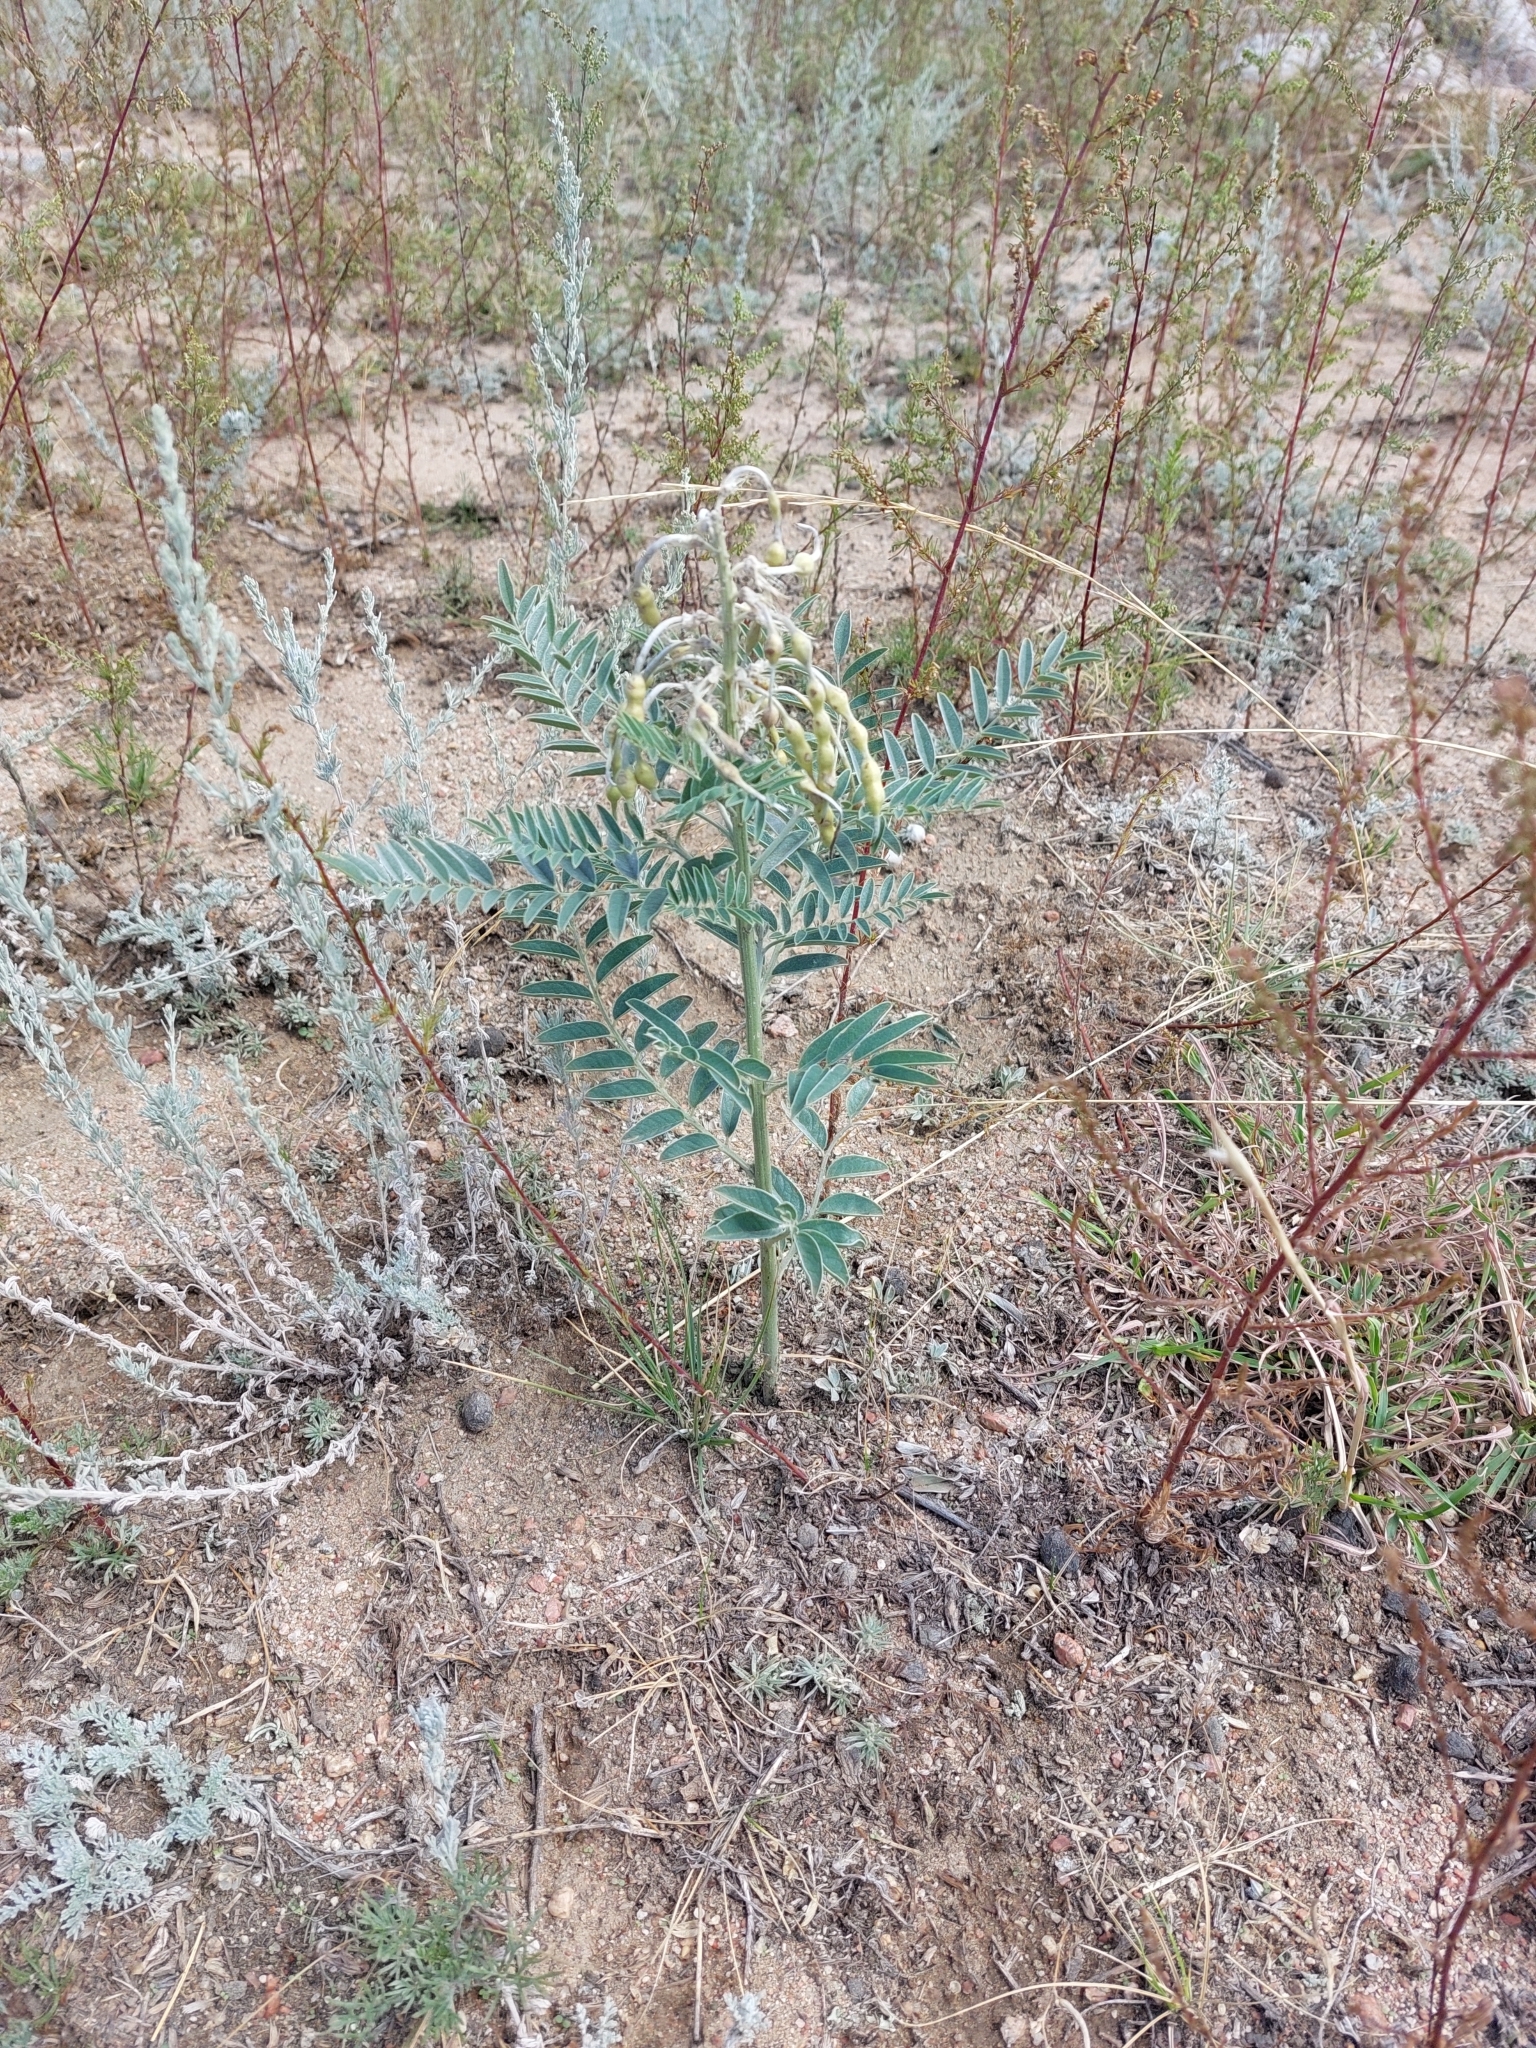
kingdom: Plantae
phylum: Tracheophyta
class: Magnoliopsida
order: Fabales
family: Fabaceae
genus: Sophora
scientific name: Sophora alopecuroides
